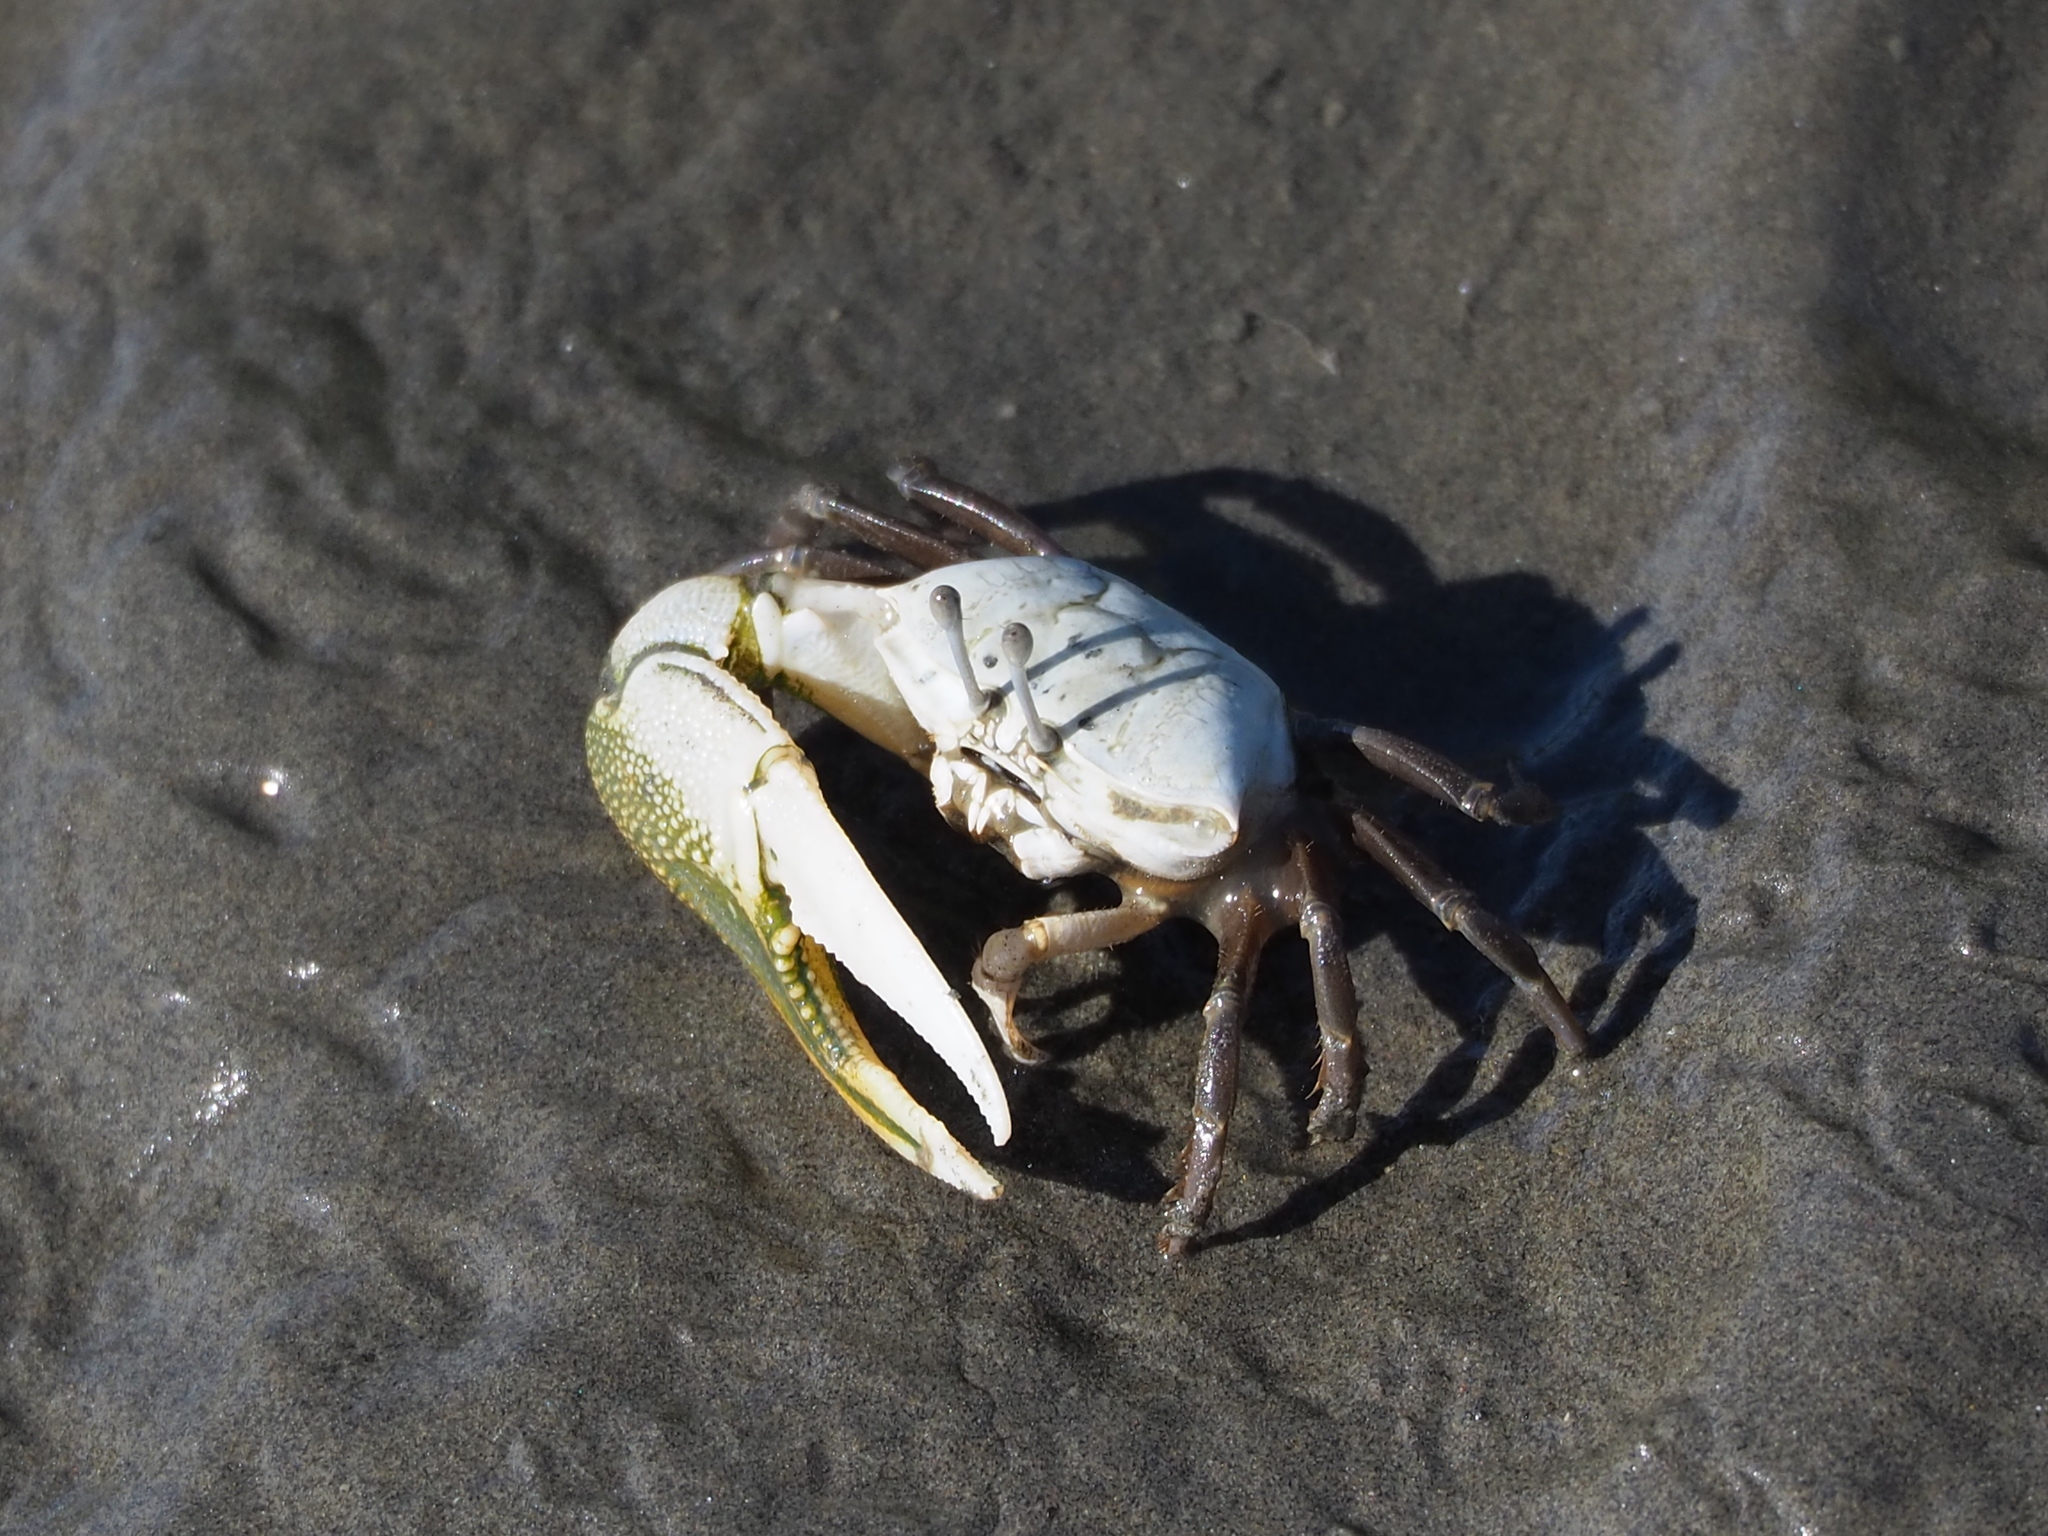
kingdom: Animalia
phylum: Arthropoda
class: Malacostraca
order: Decapoda
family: Ocypodidae
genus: Gelasimus
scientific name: Gelasimus borealis
